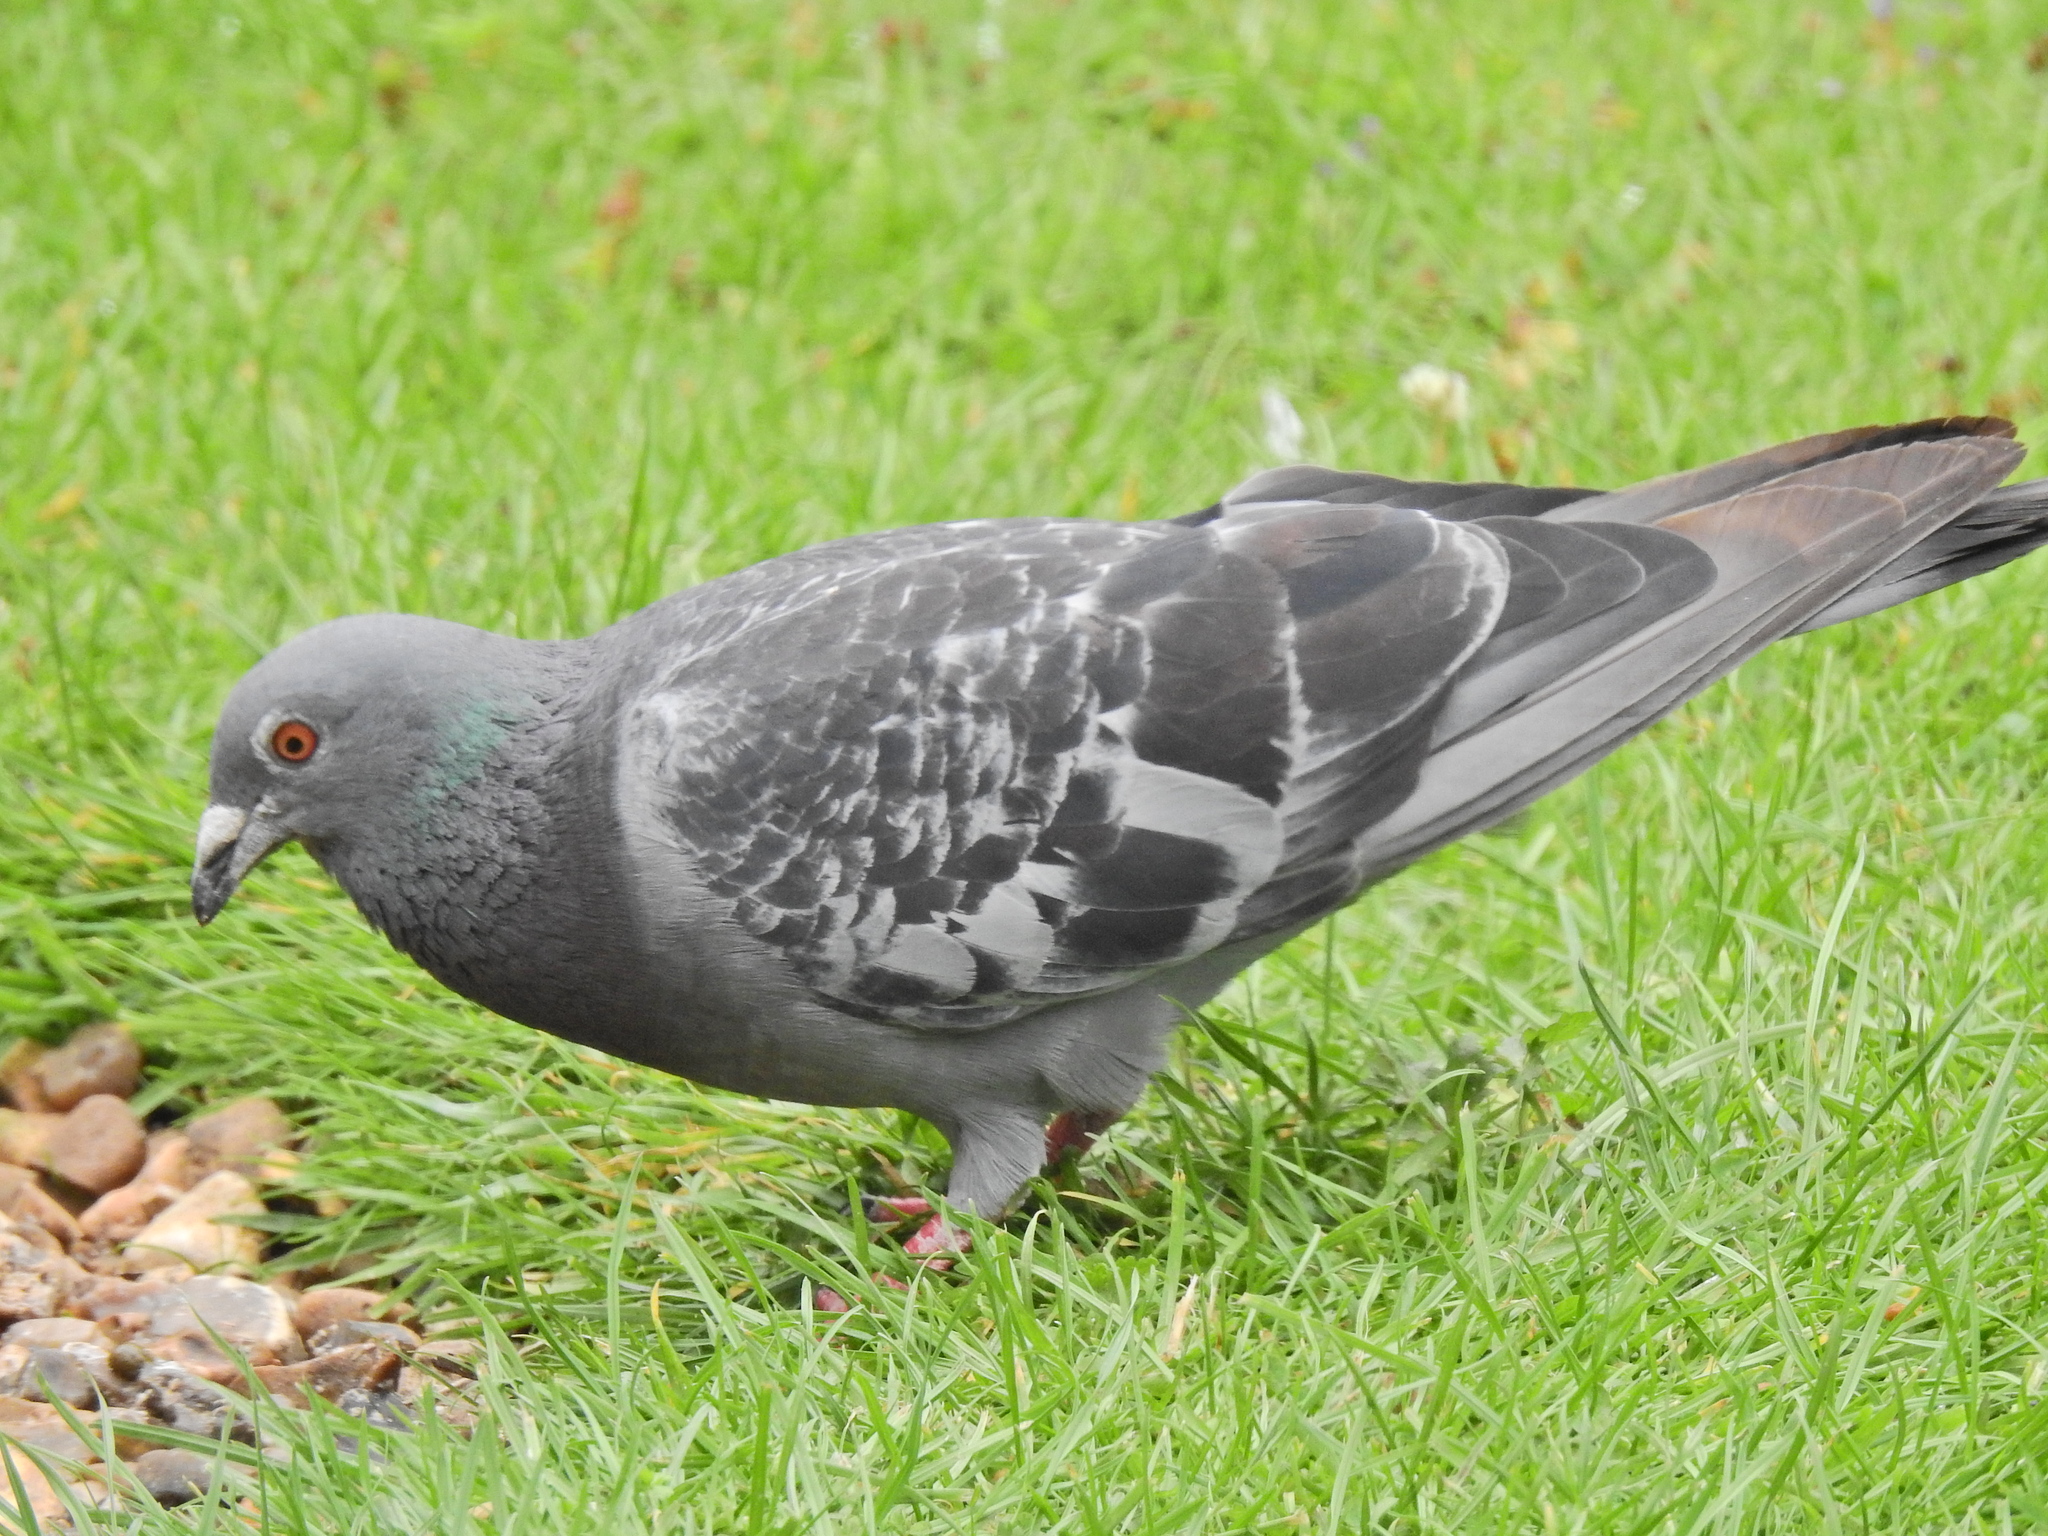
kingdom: Animalia
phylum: Chordata
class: Aves
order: Columbiformes
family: Columbidae
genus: Columba
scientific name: Columba livia
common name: Rock pigeon
